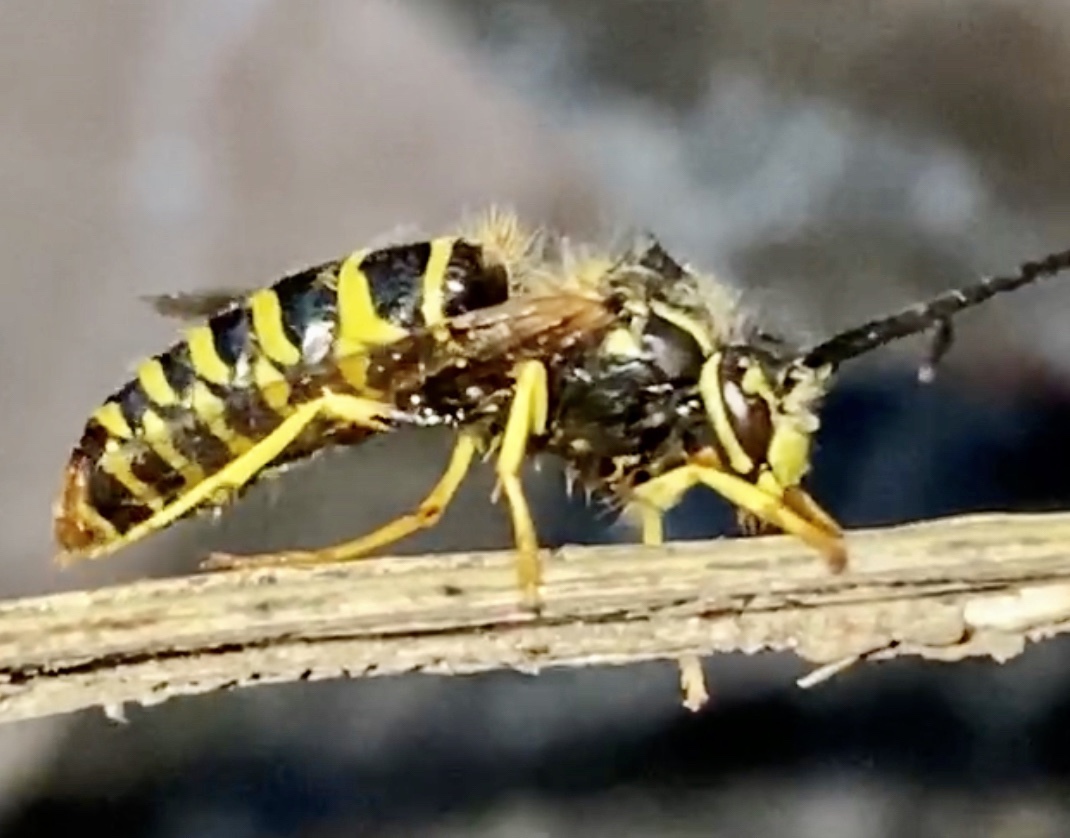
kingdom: Animalia
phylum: Arthropoda
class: Insecta
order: Hymenoptera
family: Vespidae
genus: Vespula
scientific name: Vespula maculifrons
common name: Eastern yellowjacket
